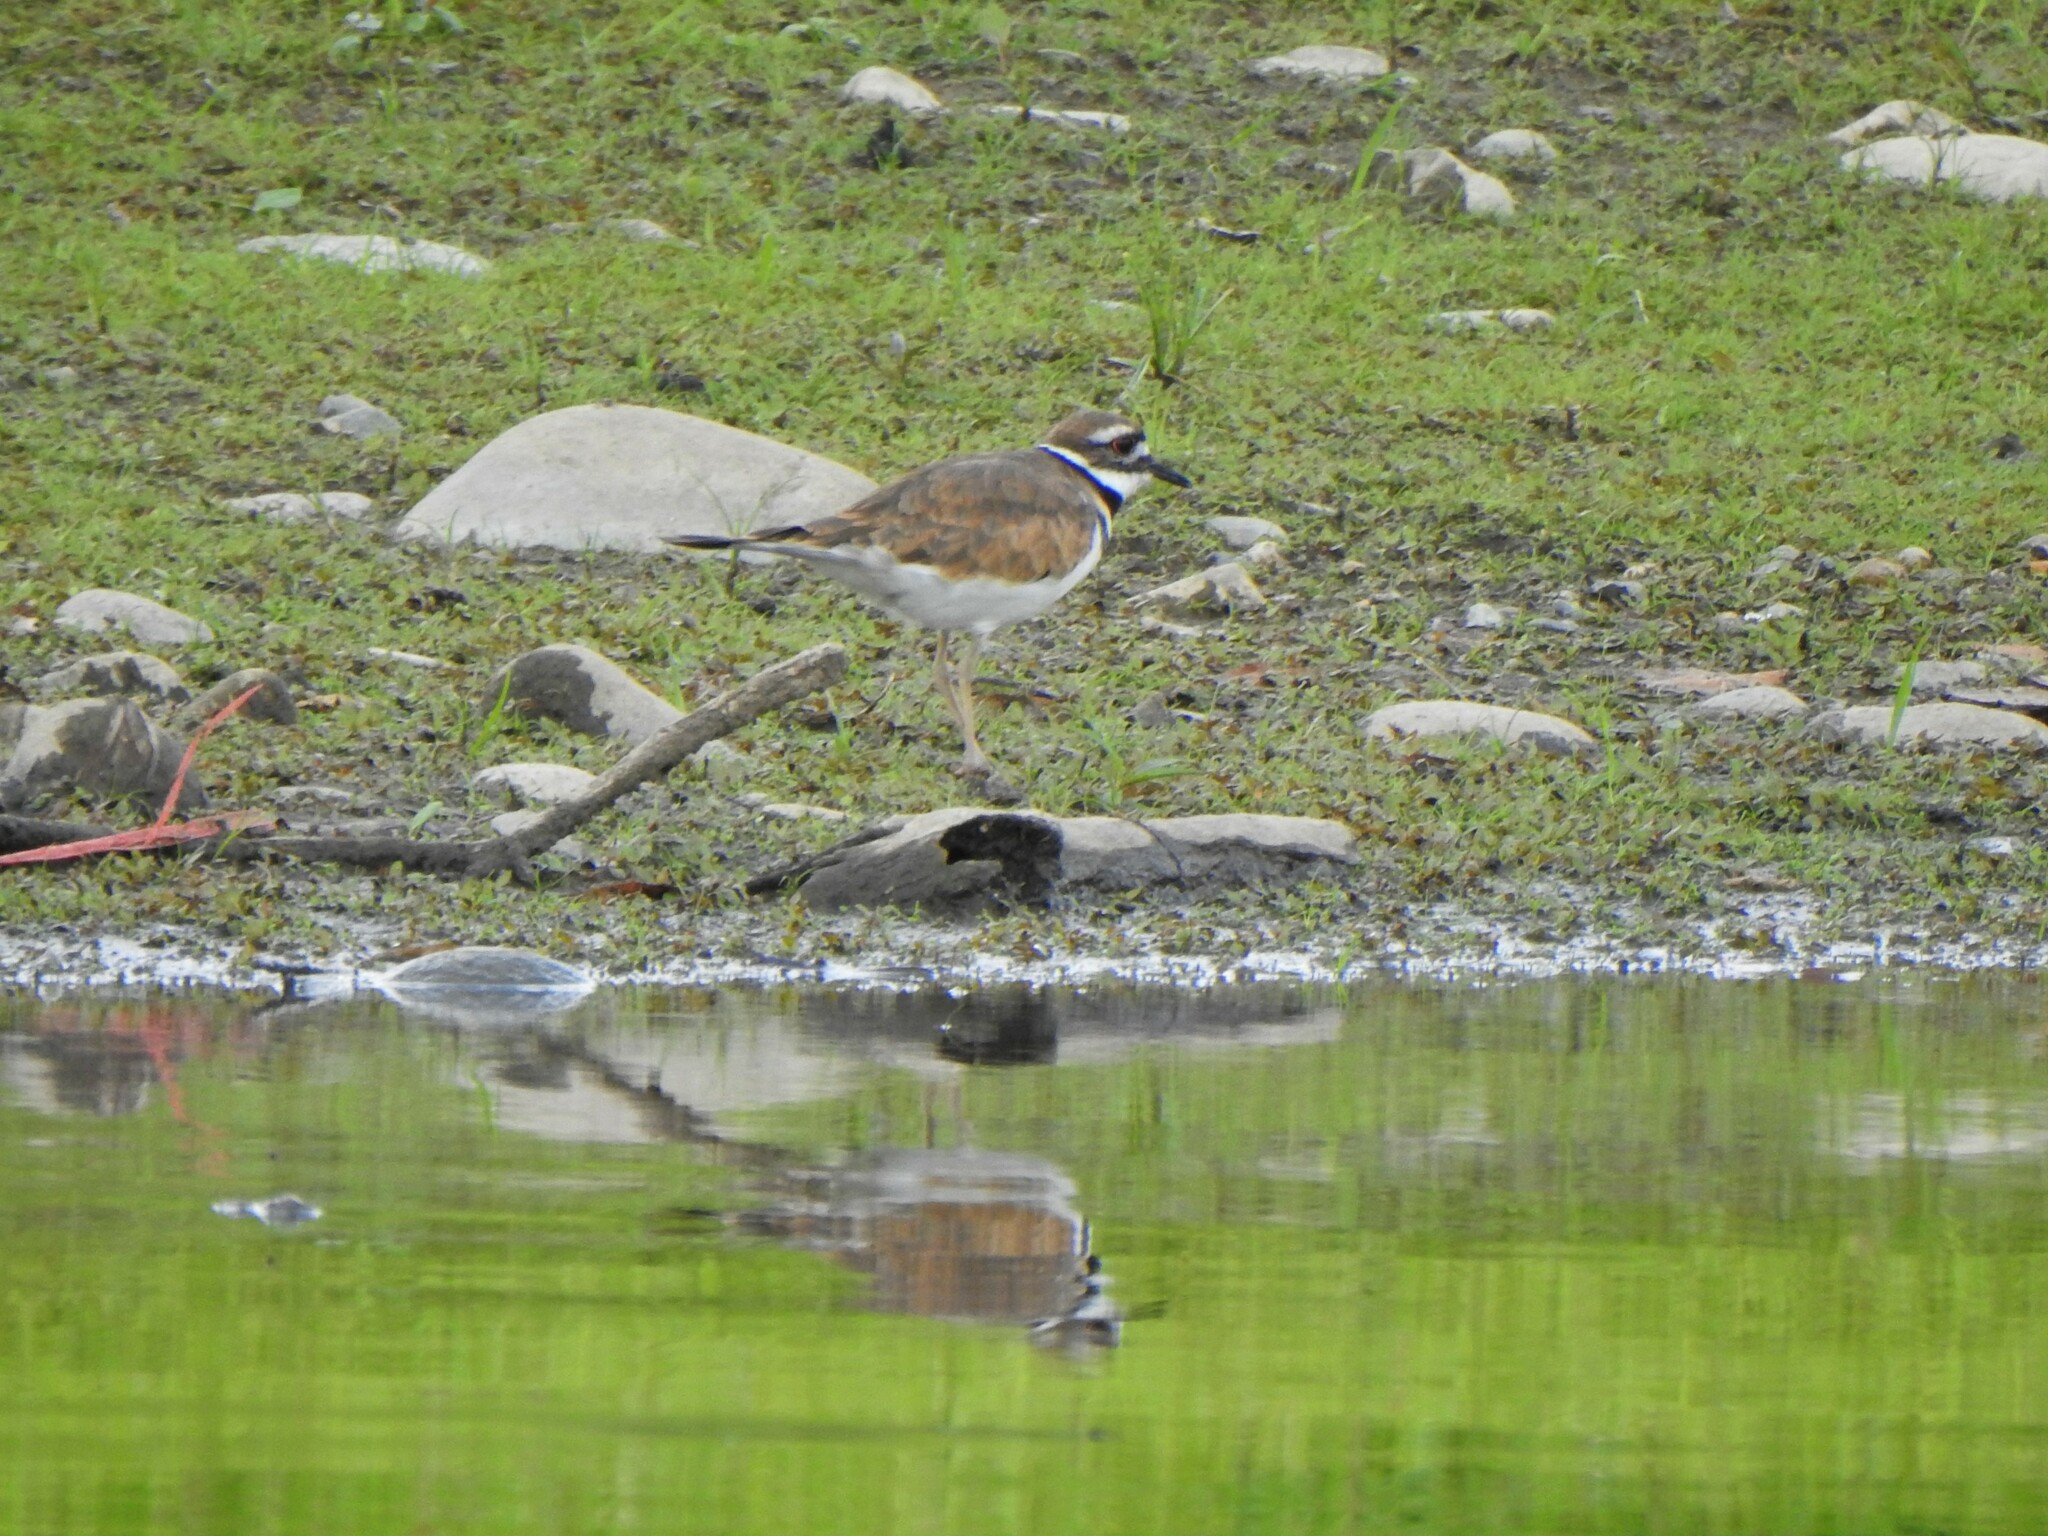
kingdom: Animalia
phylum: Chordata
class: Aves
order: Charadriiformes
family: Charadriidae
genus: Charadrius
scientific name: Charadrius vociferus
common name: Killdeer
